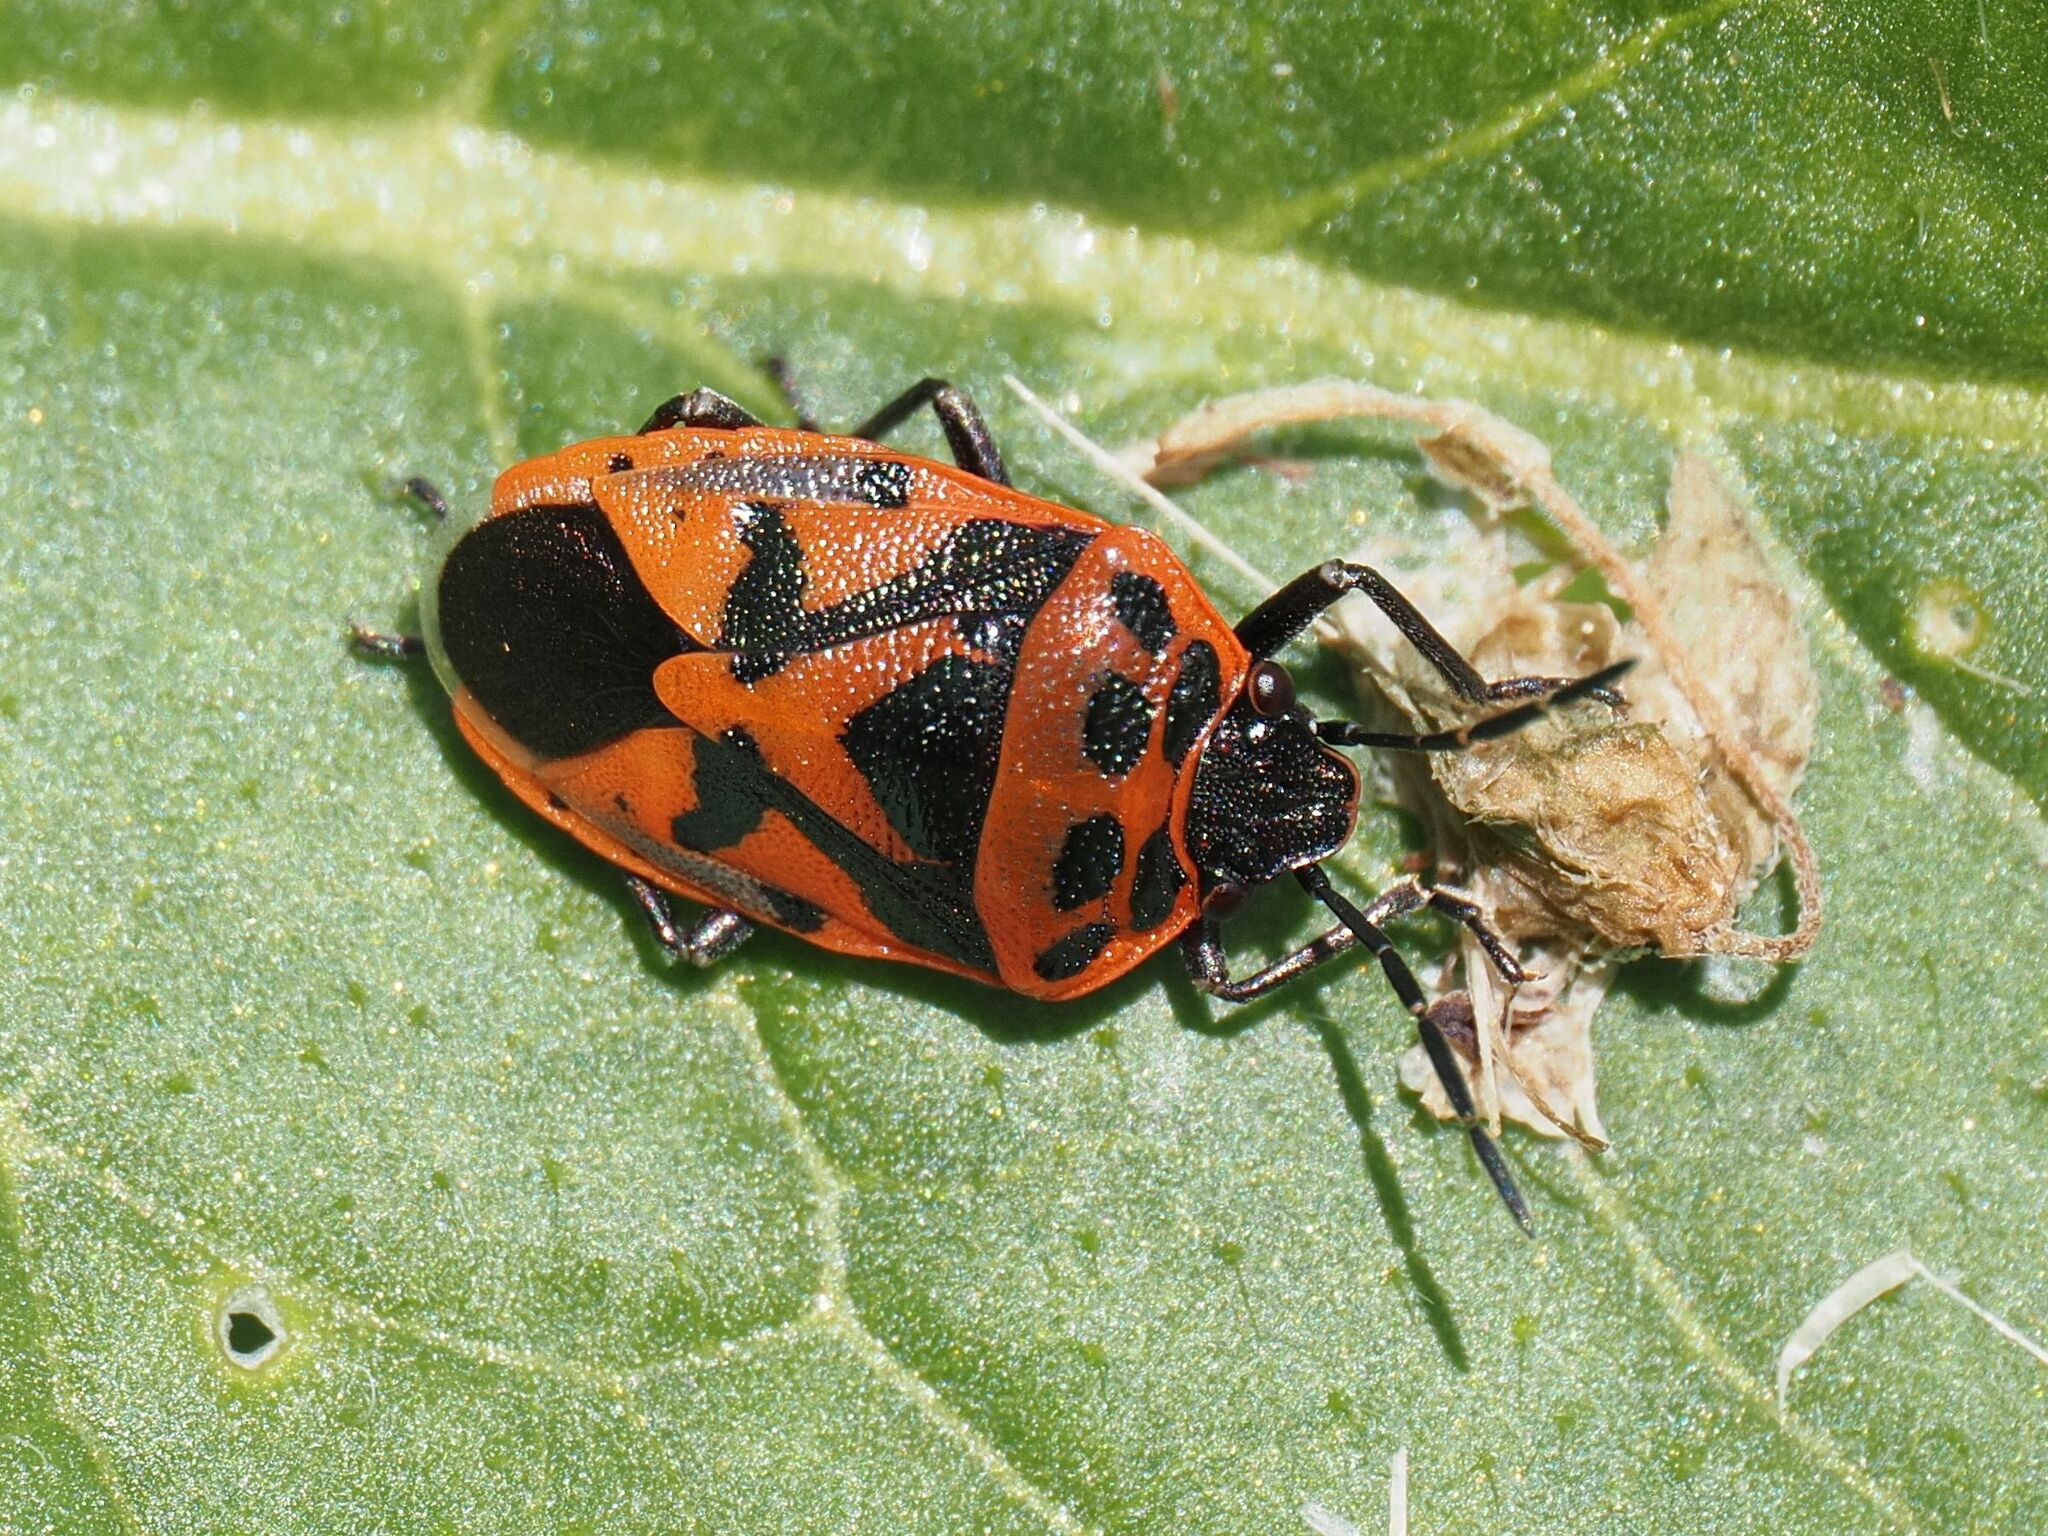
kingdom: Animalia
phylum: Arthropoda
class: Insecta
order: Hemiptera
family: Pentatomidae
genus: Eurydema
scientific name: Eurydema ornata
